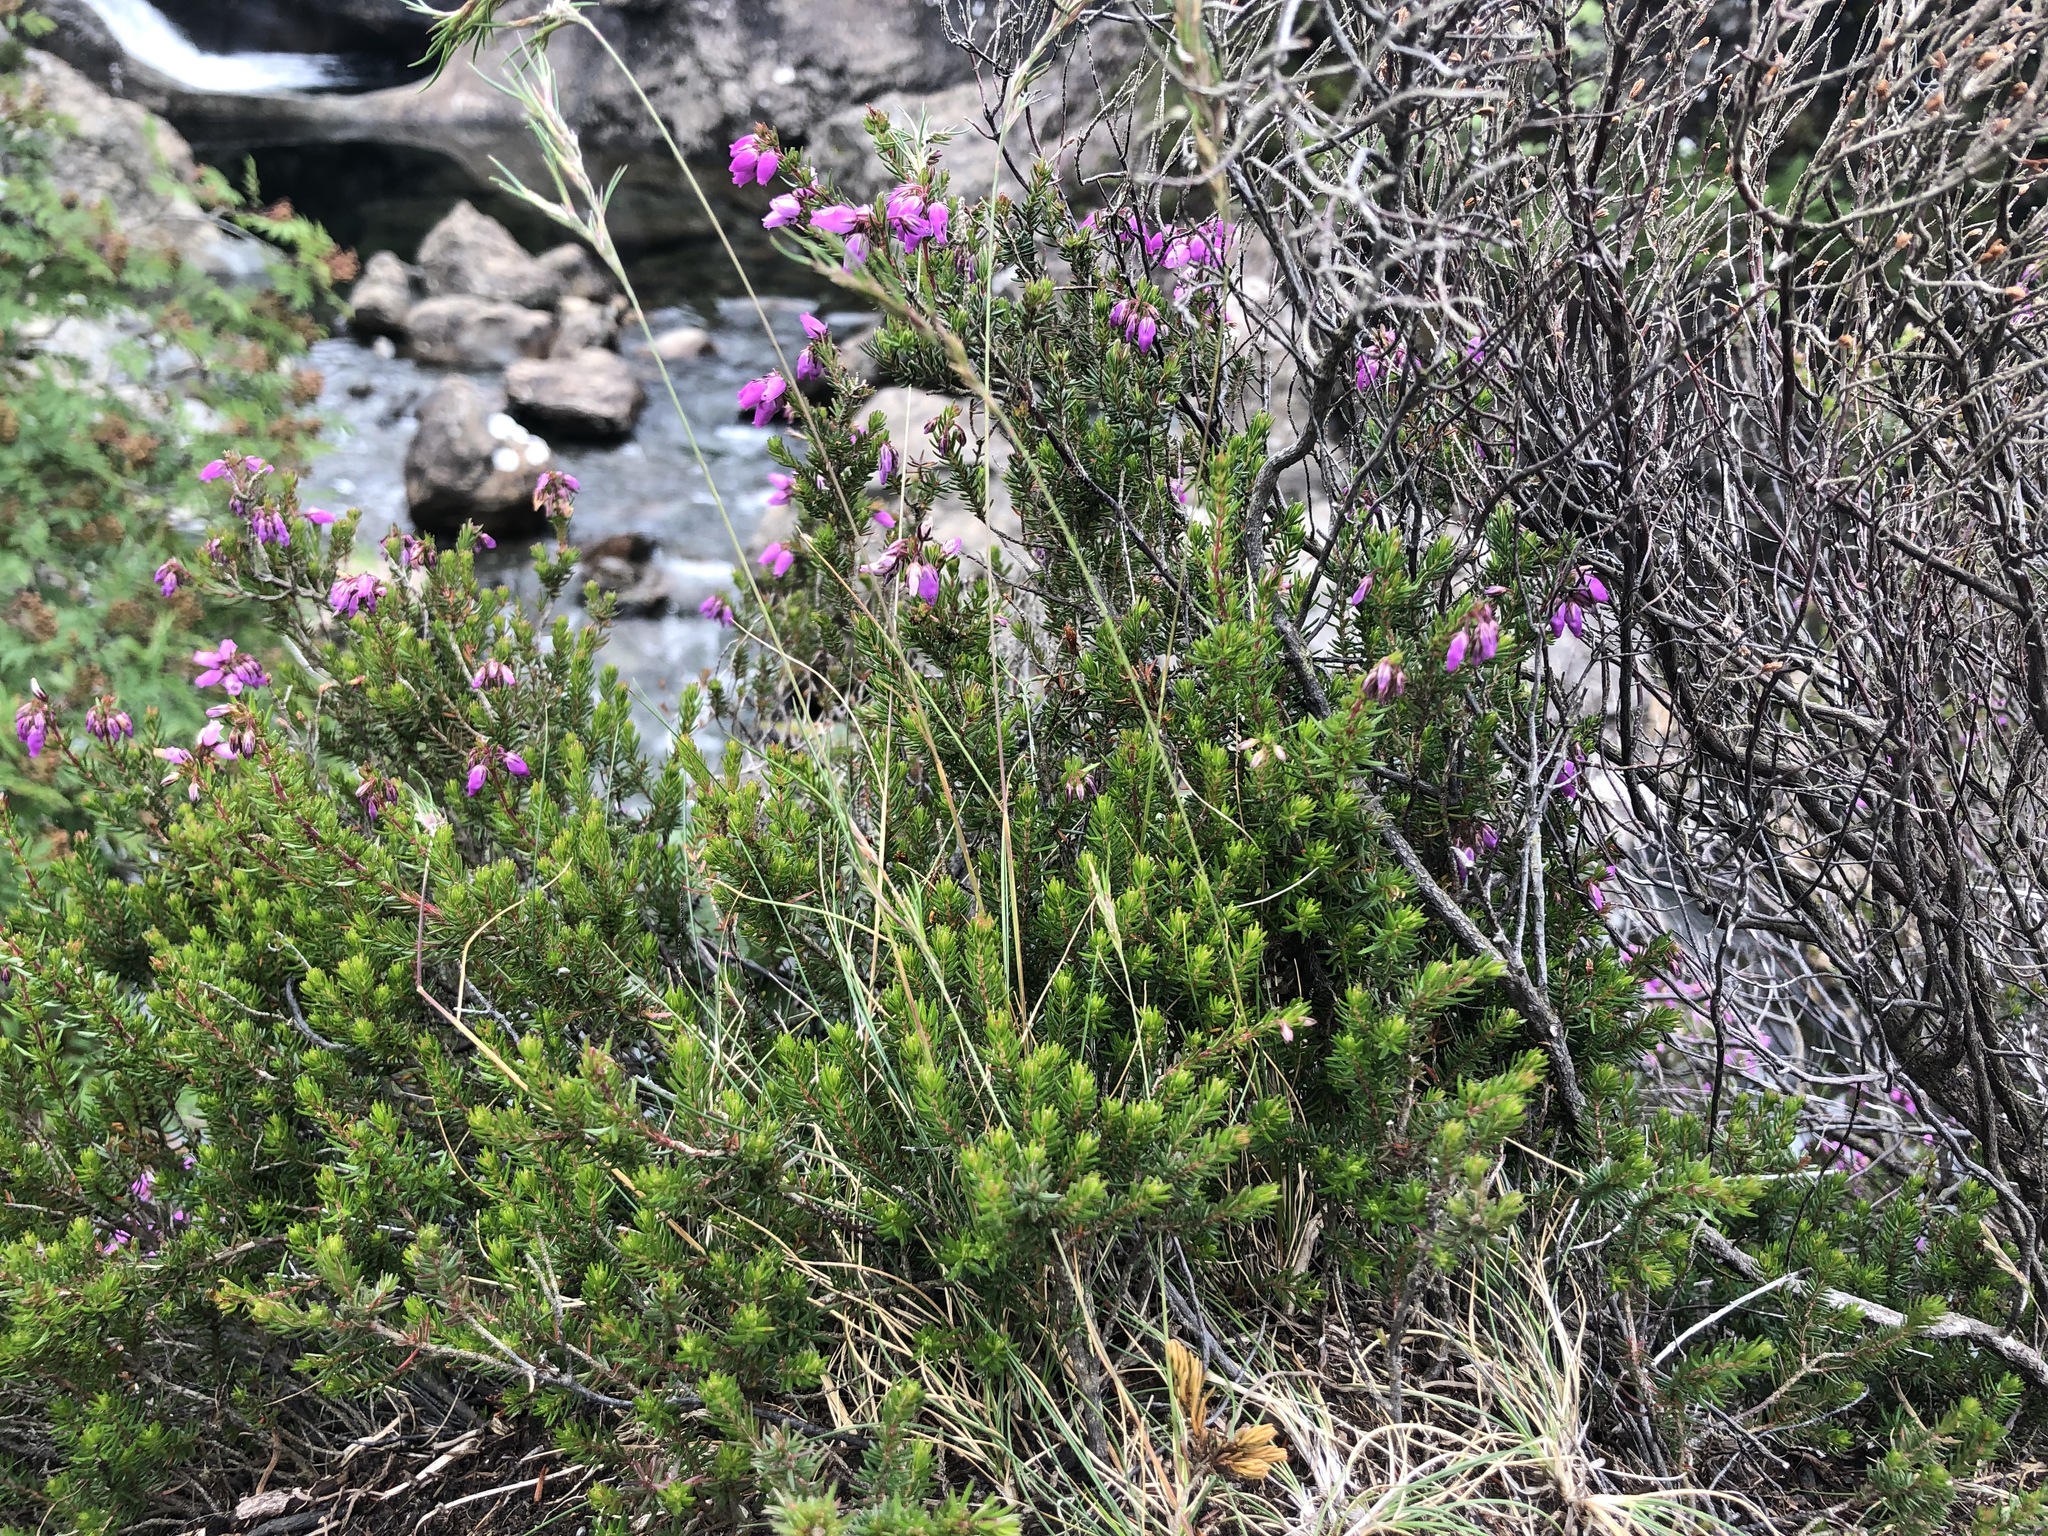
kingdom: Plantae
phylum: Tracheophyta
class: Magnoliopsida
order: Ericales
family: Ericaceae
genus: Erica
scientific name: Erica cinerea
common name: Bell heather
